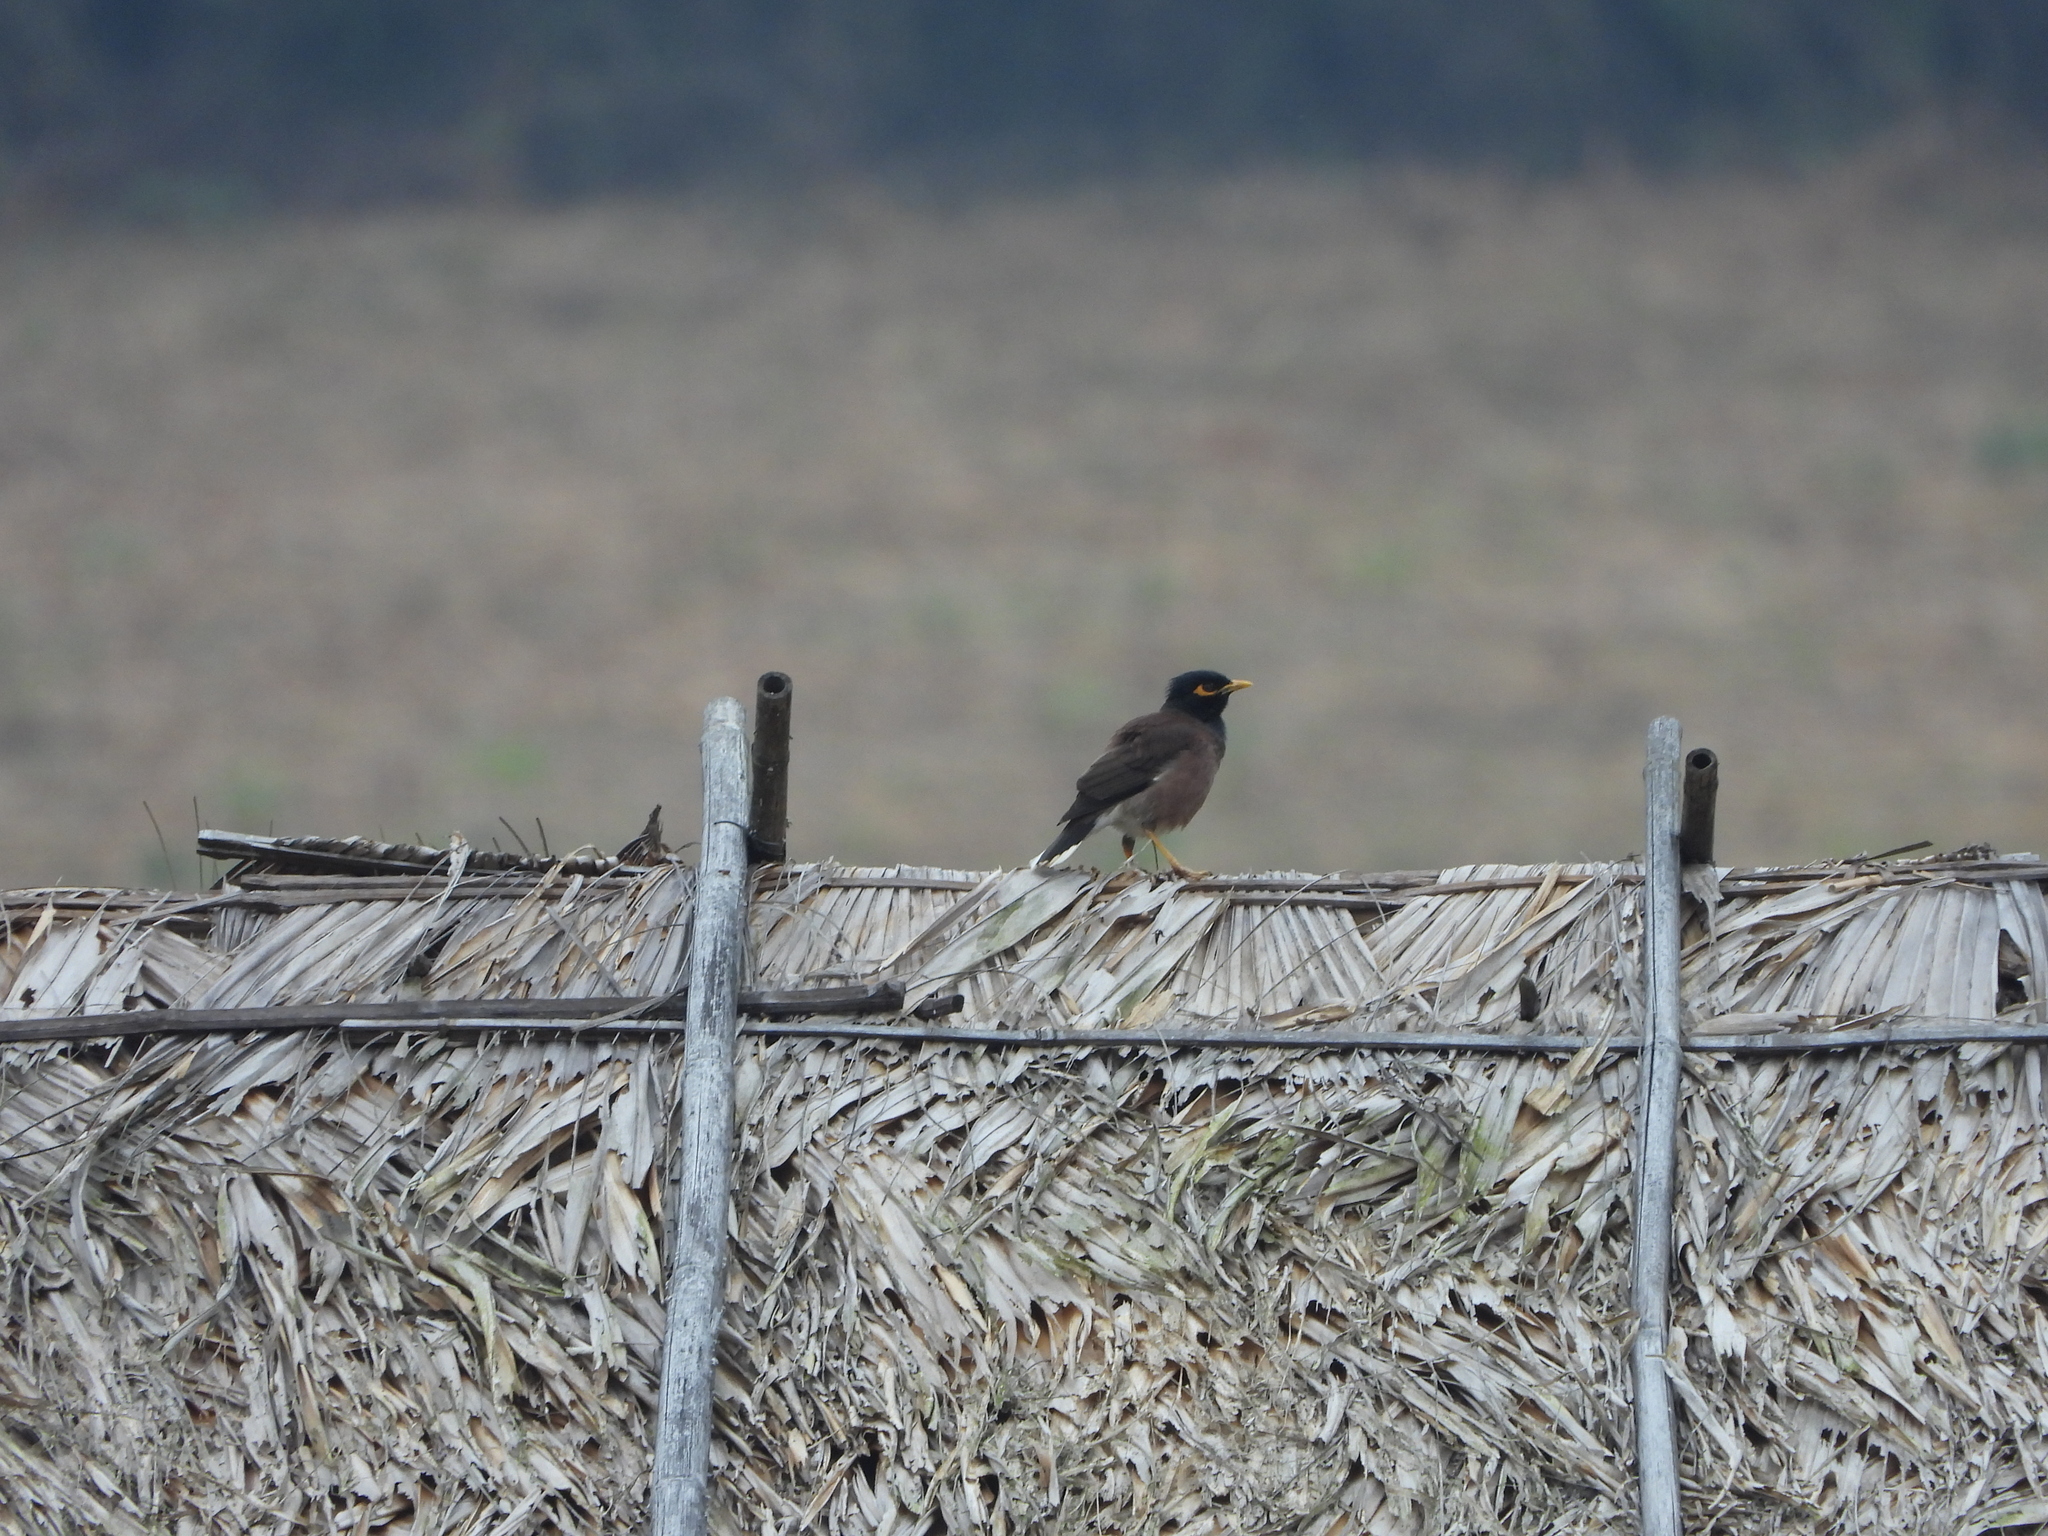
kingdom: Animalia
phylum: Chordata
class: Aves
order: Passeriformes
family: Sturnidae
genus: Acridotheres
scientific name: Acridotheres tristis
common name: Common myna
